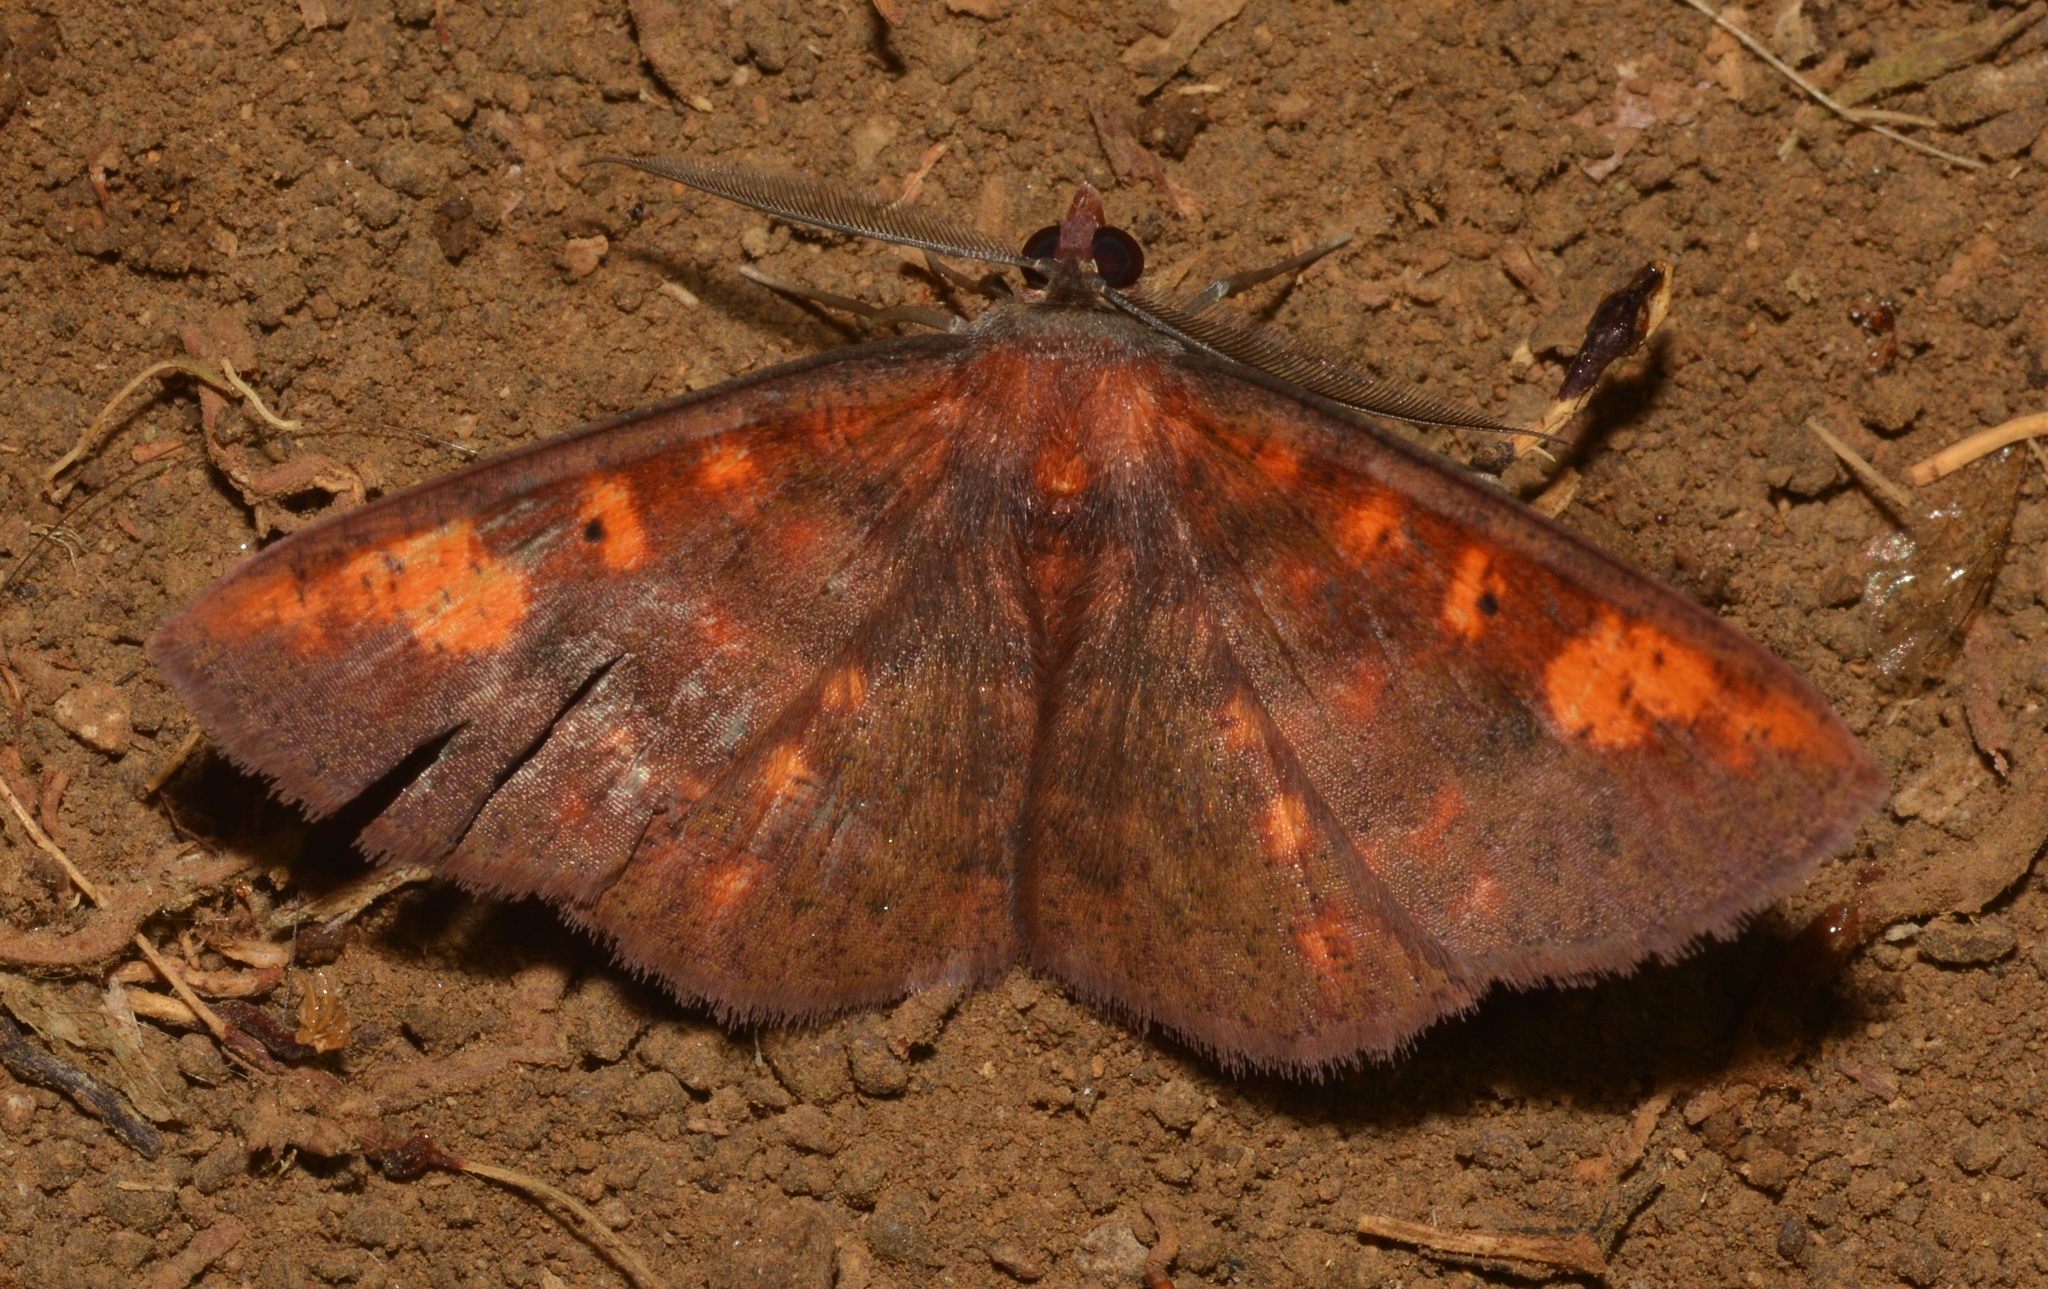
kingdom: Animalia
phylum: Arthropoda
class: Insecta
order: Lepidoptera
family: Geometridae
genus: Oenoptila
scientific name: Oenoptila plagiata
